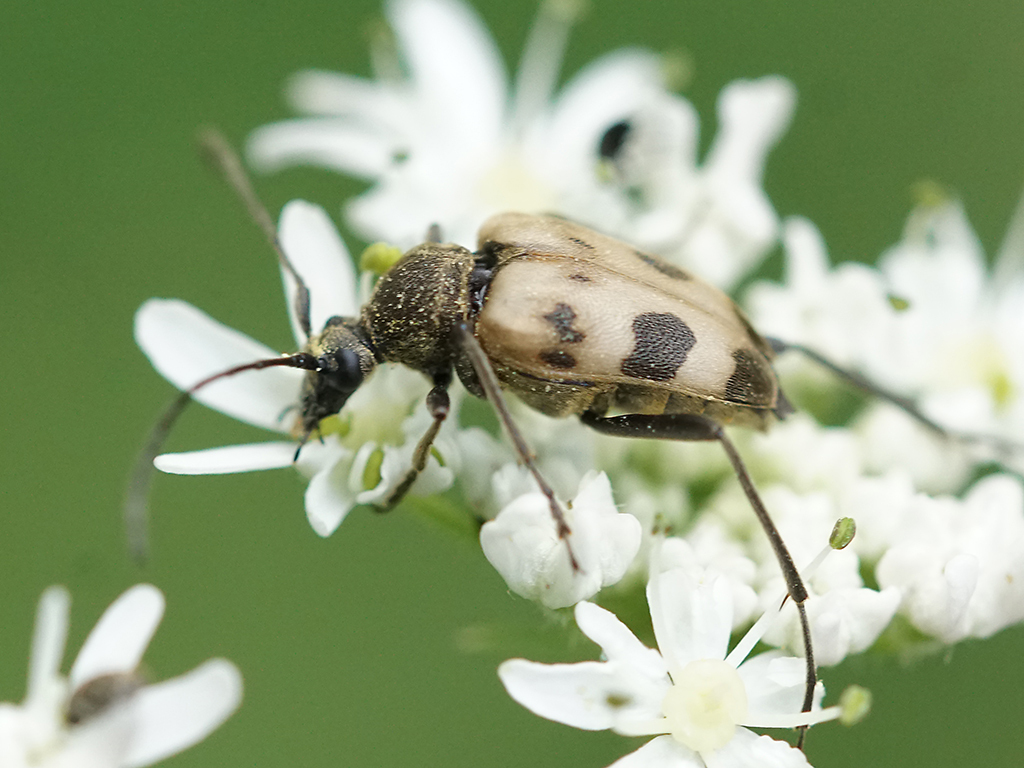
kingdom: Animalia
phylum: Arthropoda
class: Insecta
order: Coleoptera
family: Cerambycidae
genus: Pachytodes
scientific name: Pachytodes cerambyciformis
